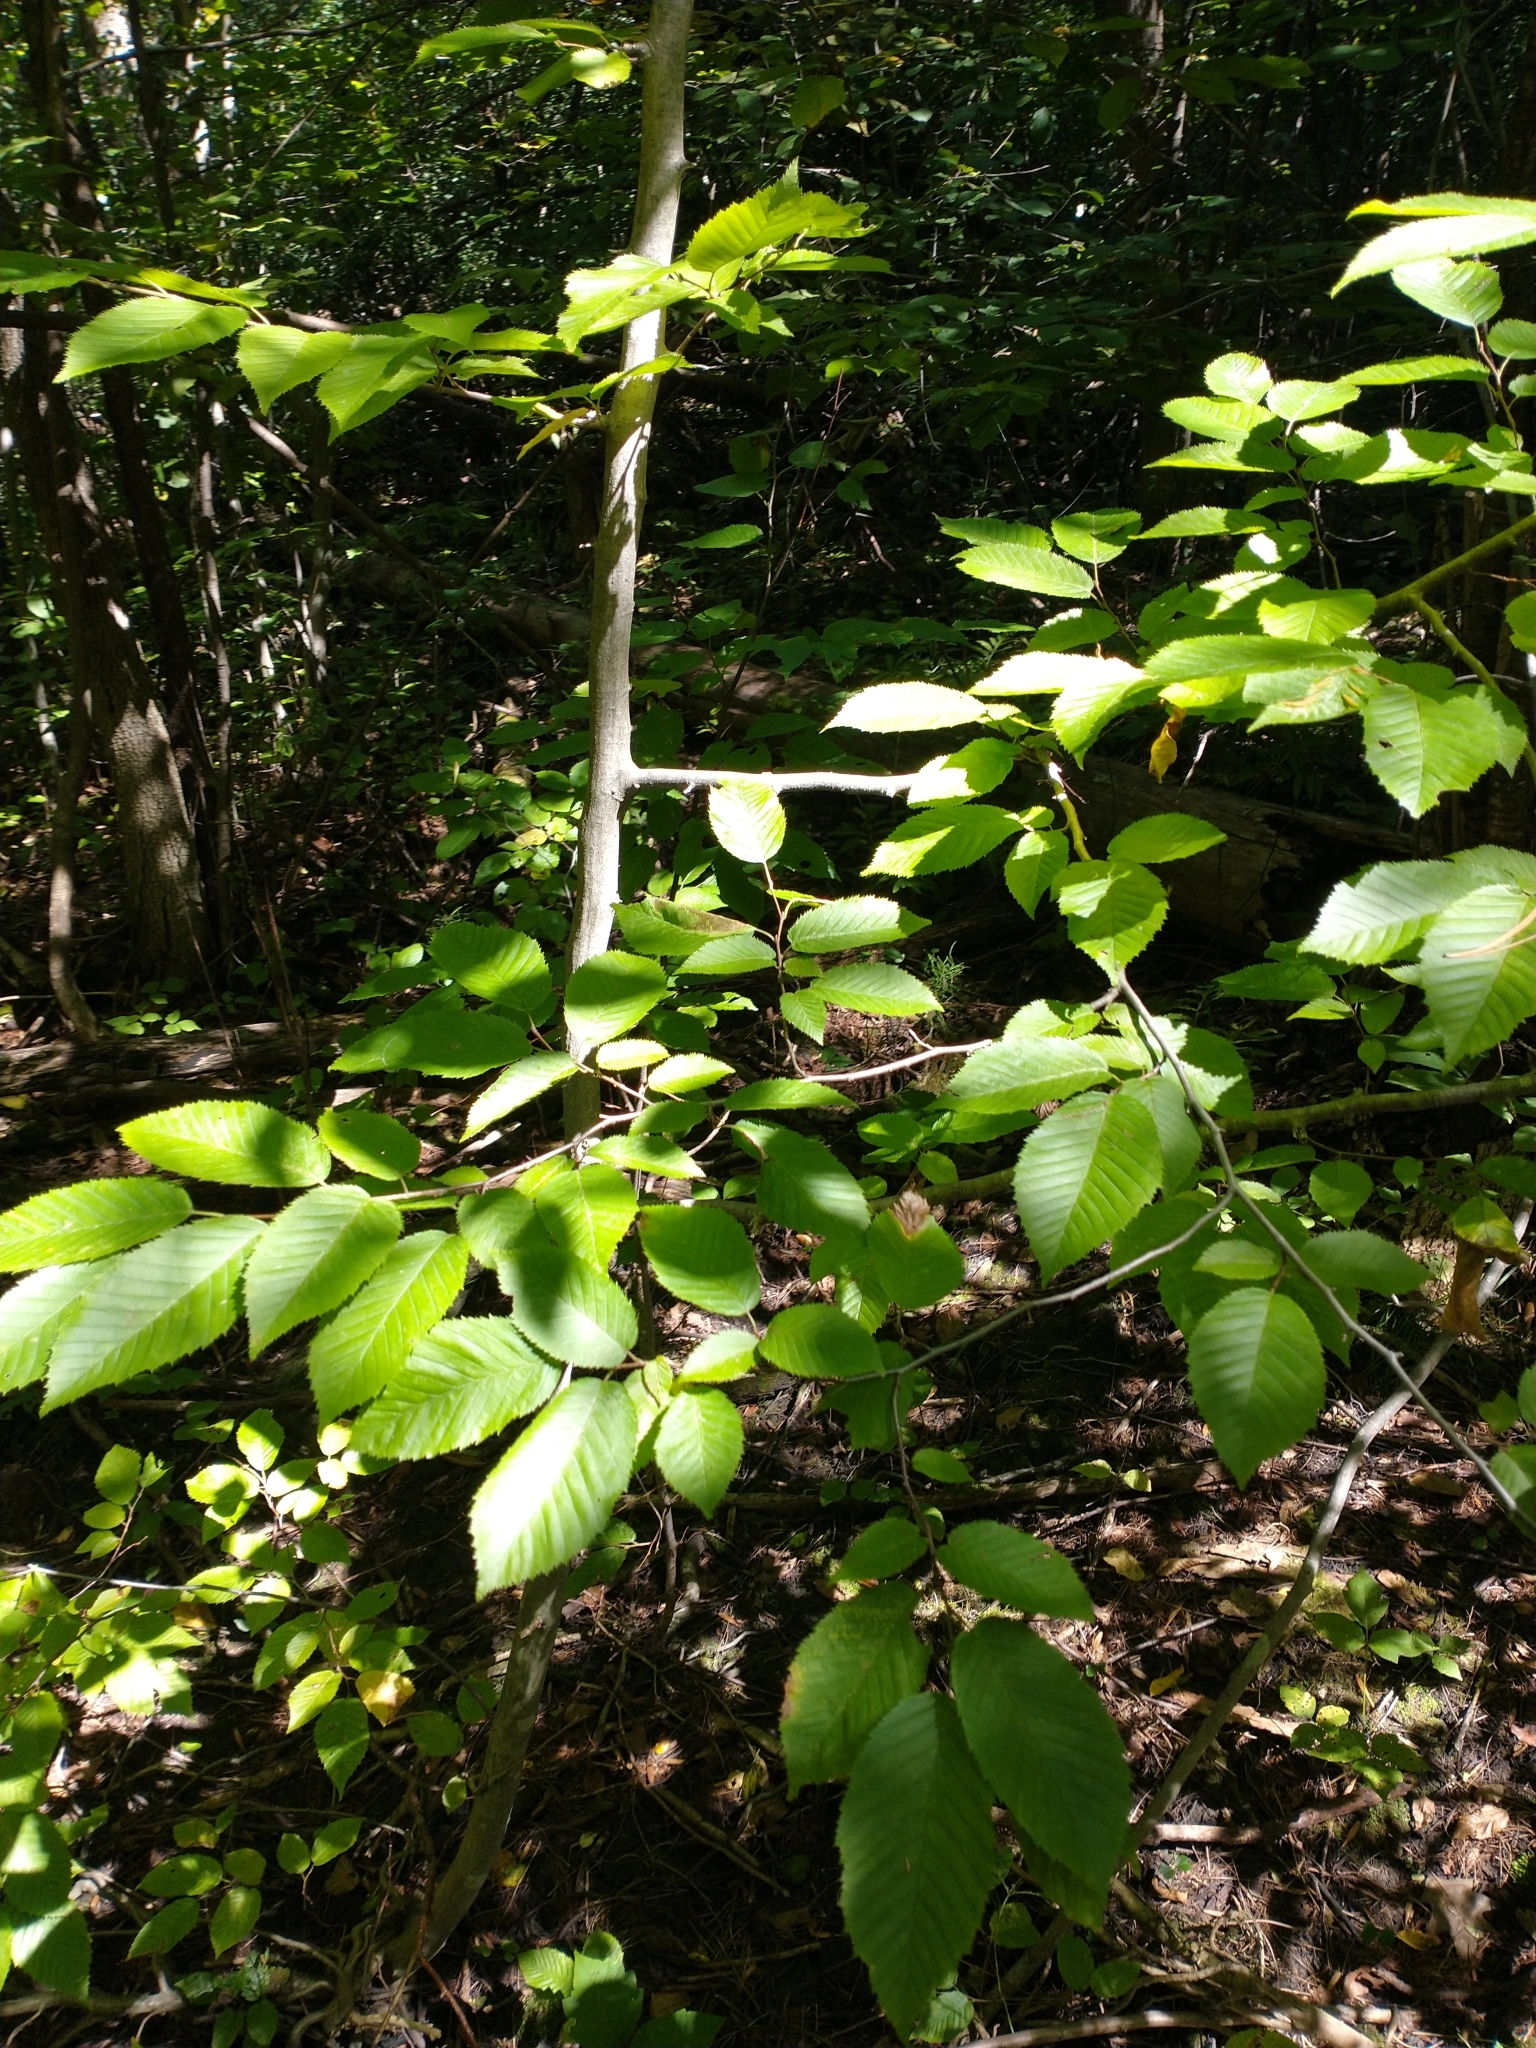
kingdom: Plantae
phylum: Tracheophyta
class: Magnoliopsida
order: Fagales
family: Betulaceae
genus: Carpinus
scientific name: Carpinus caroliniana
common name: American hornbeam
